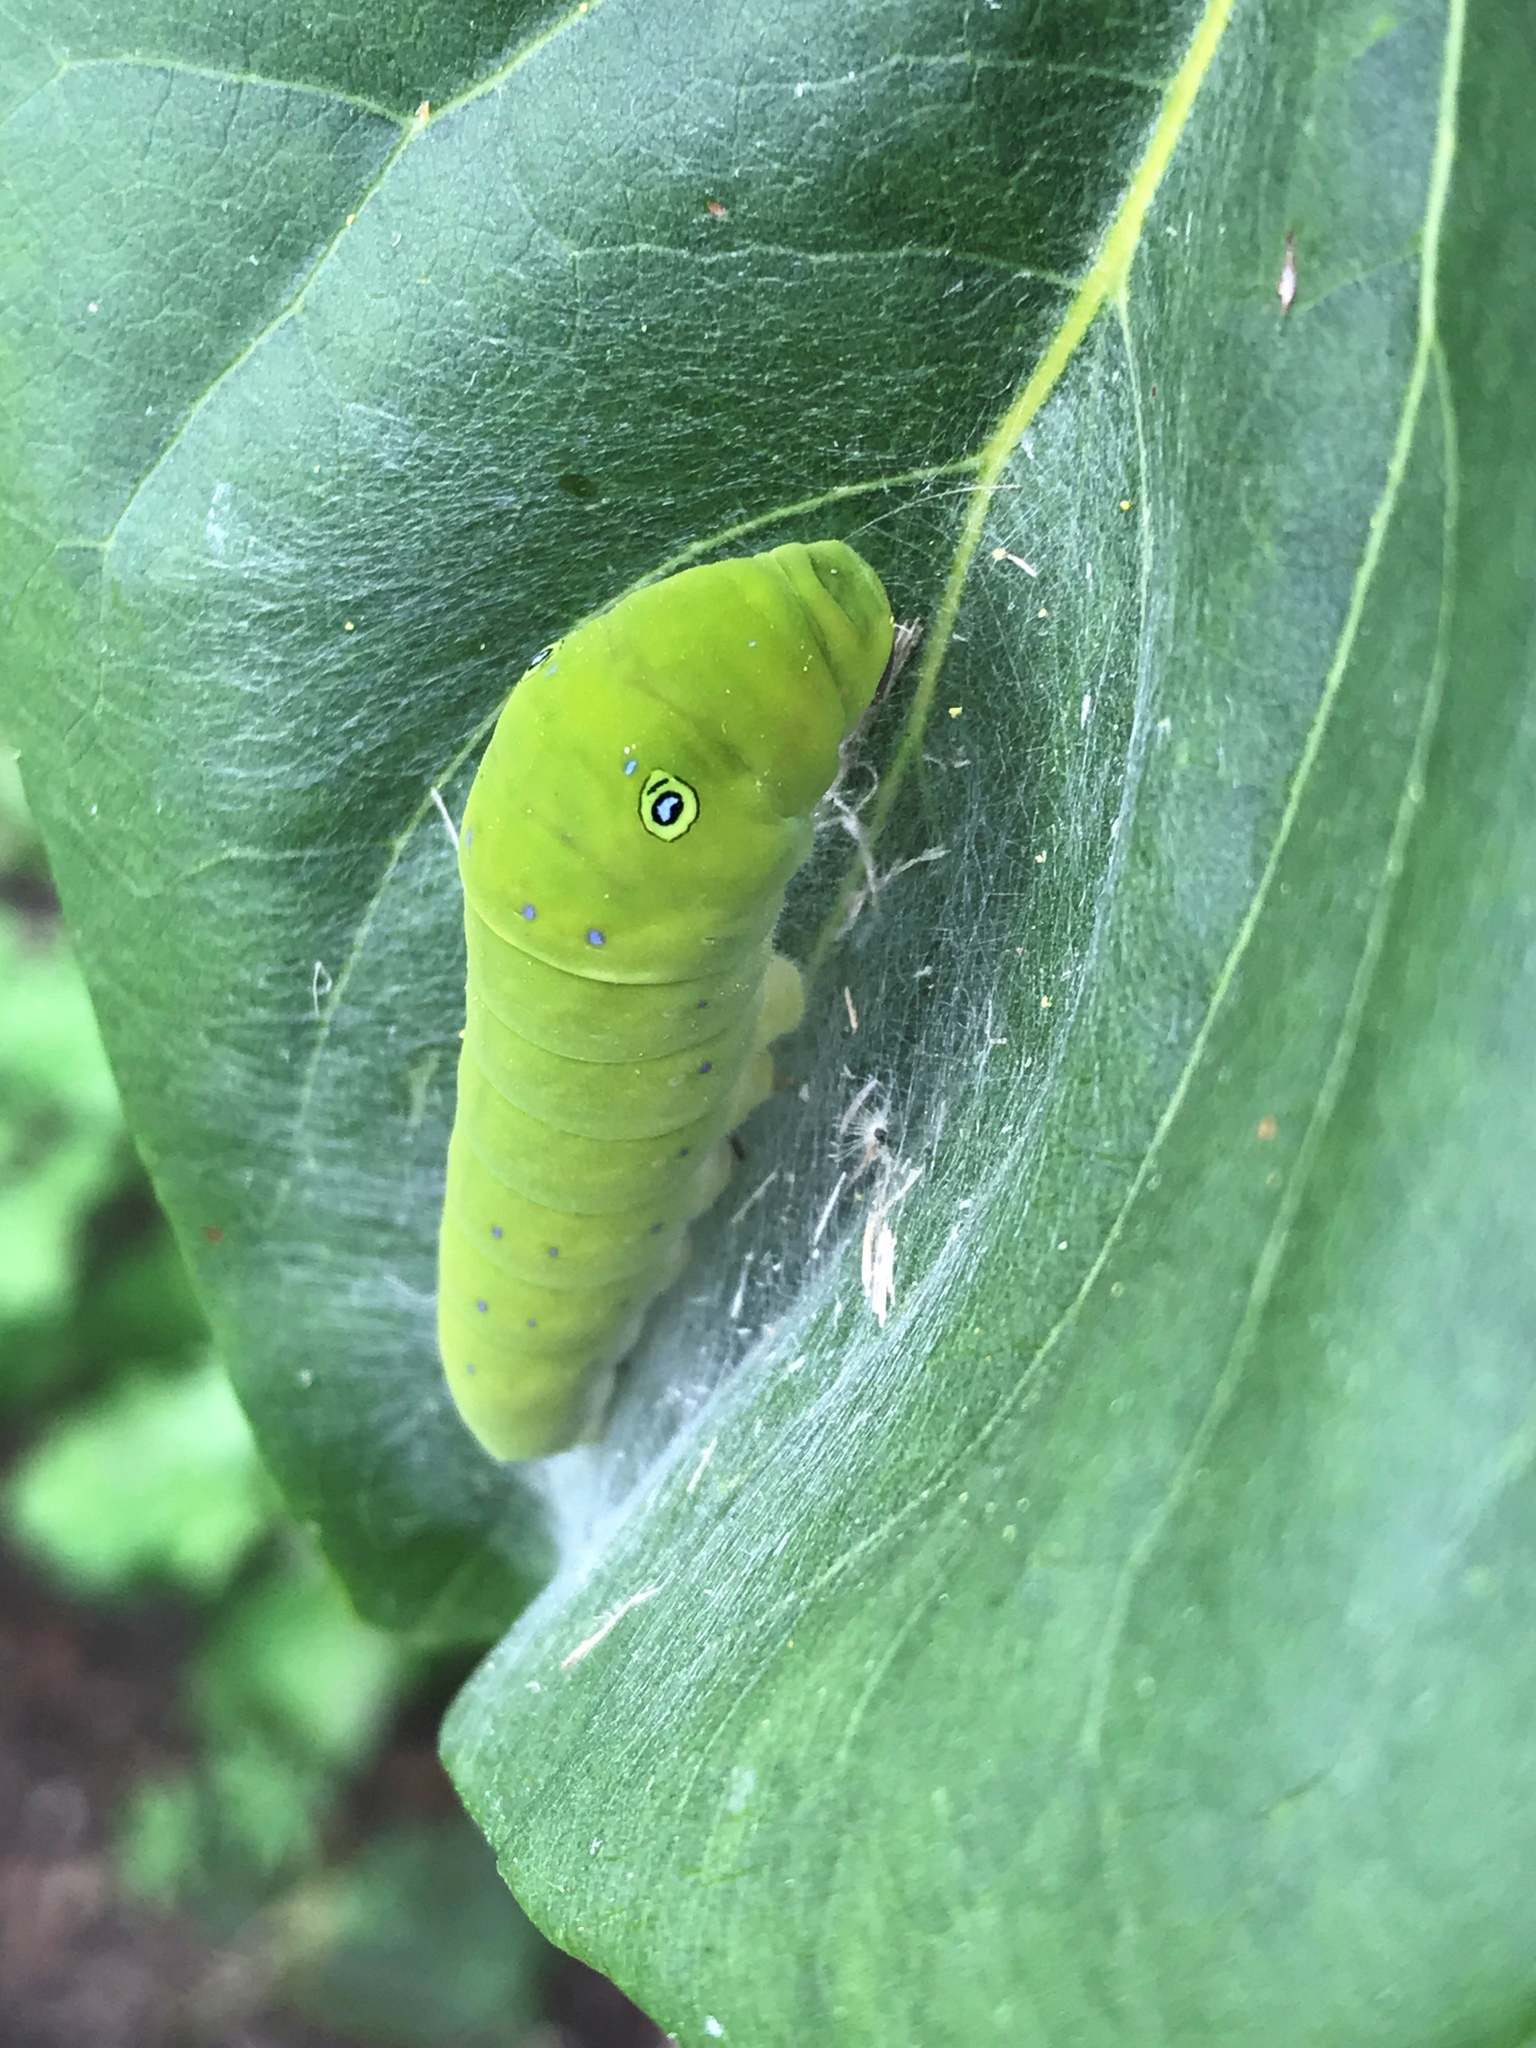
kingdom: Animalia
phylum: Arthropoda
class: Insecta
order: Lepidoptera
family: Papilionidae
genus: Papilio
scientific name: Papilio glaucus
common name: Tiger swallowtail
